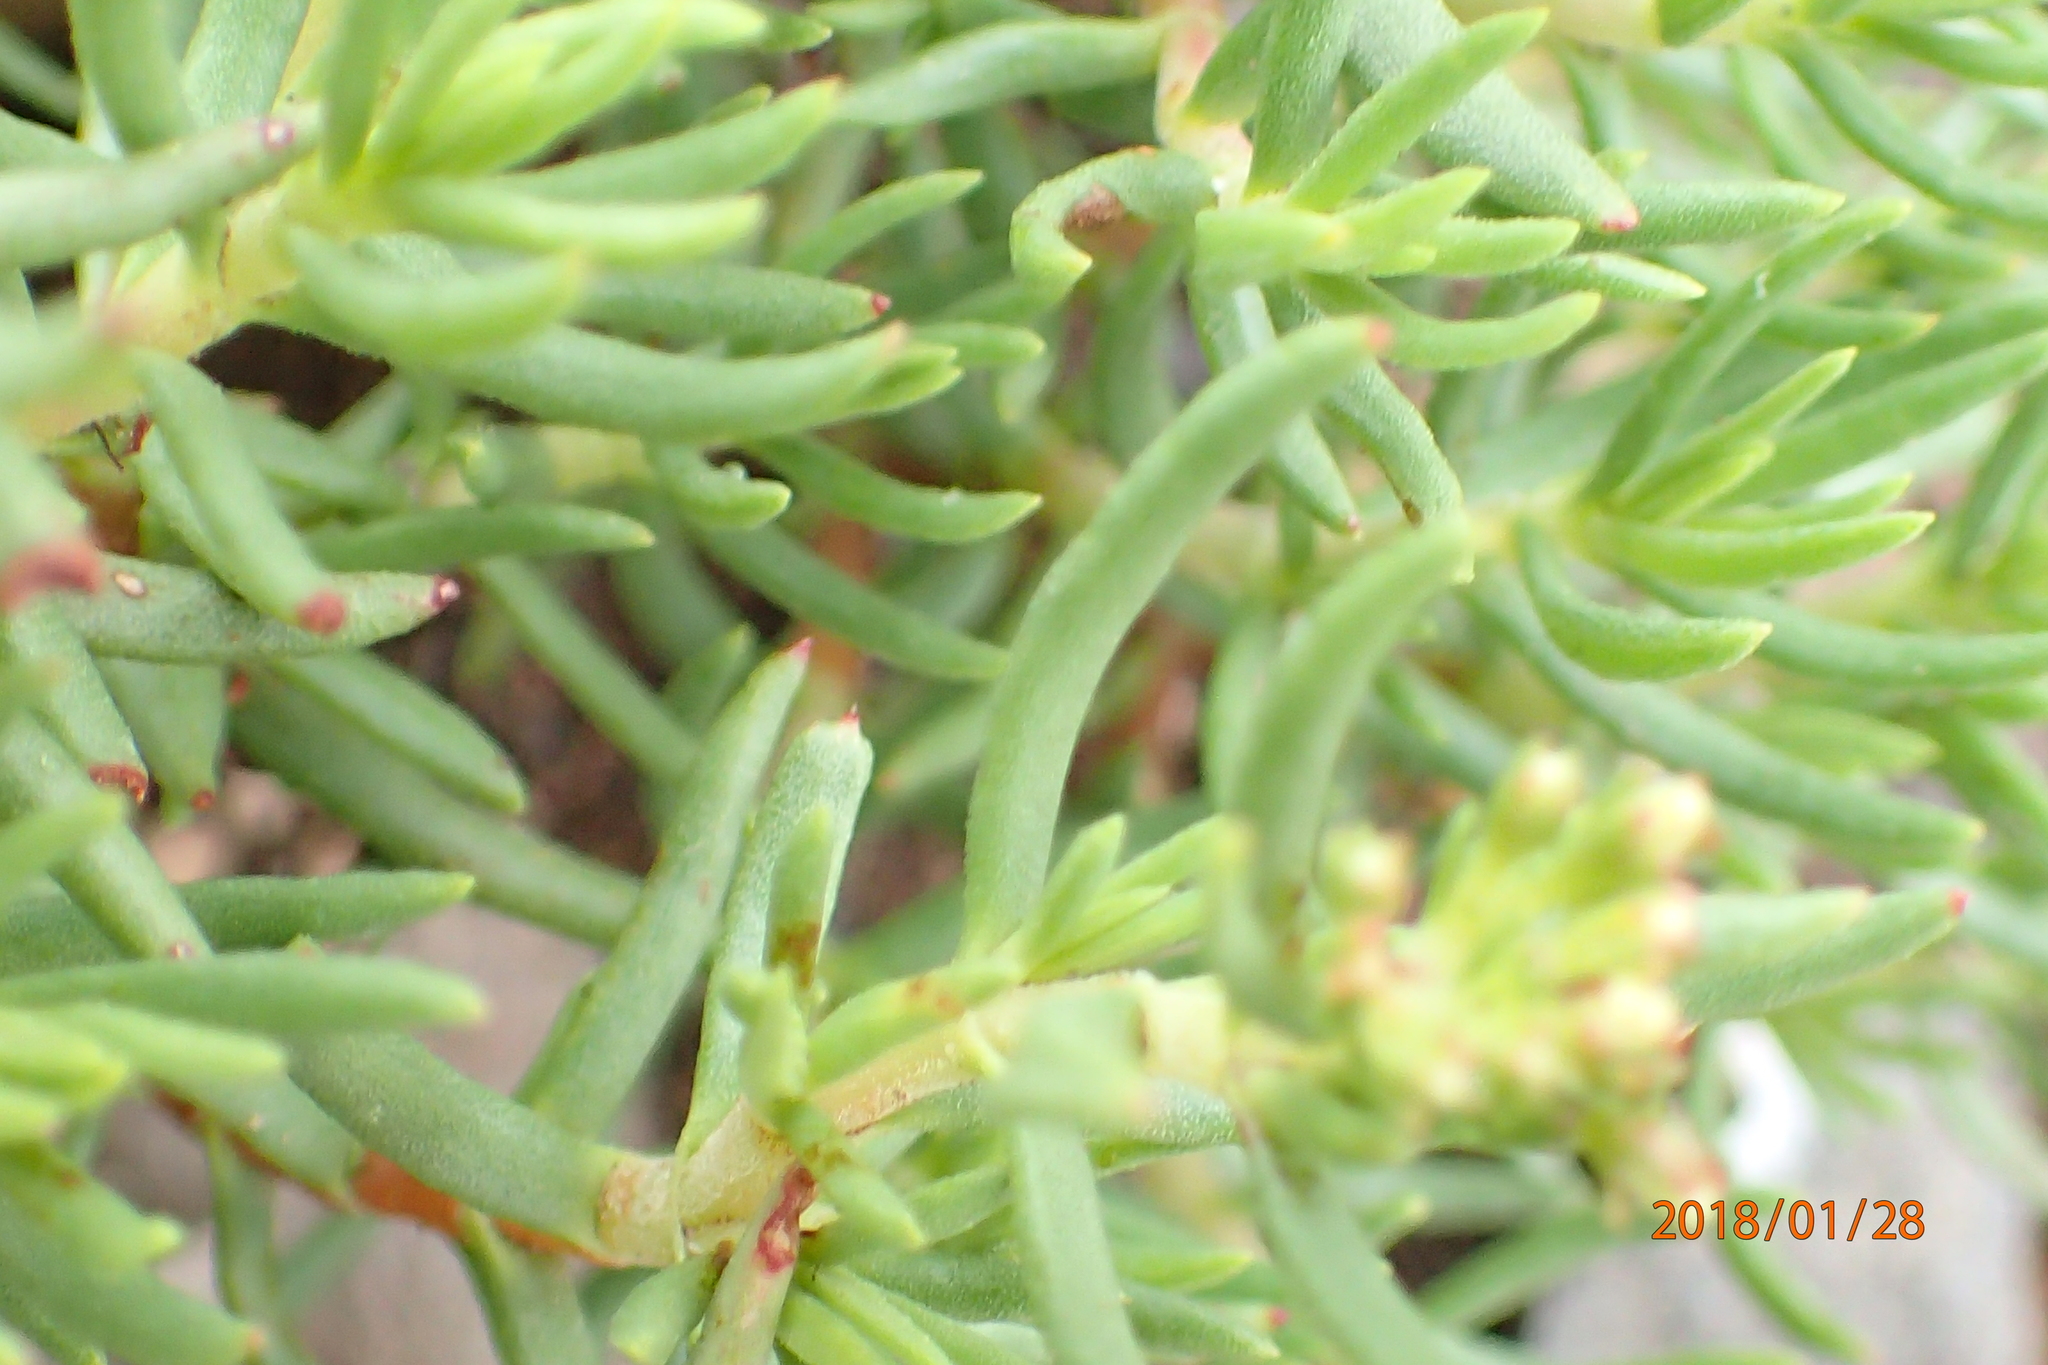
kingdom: Plantae
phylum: Tracheophyta
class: Magnoliopsida
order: Saxifragales
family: Crassulaceae
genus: Crassula
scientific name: Crassula sarcocaulis
